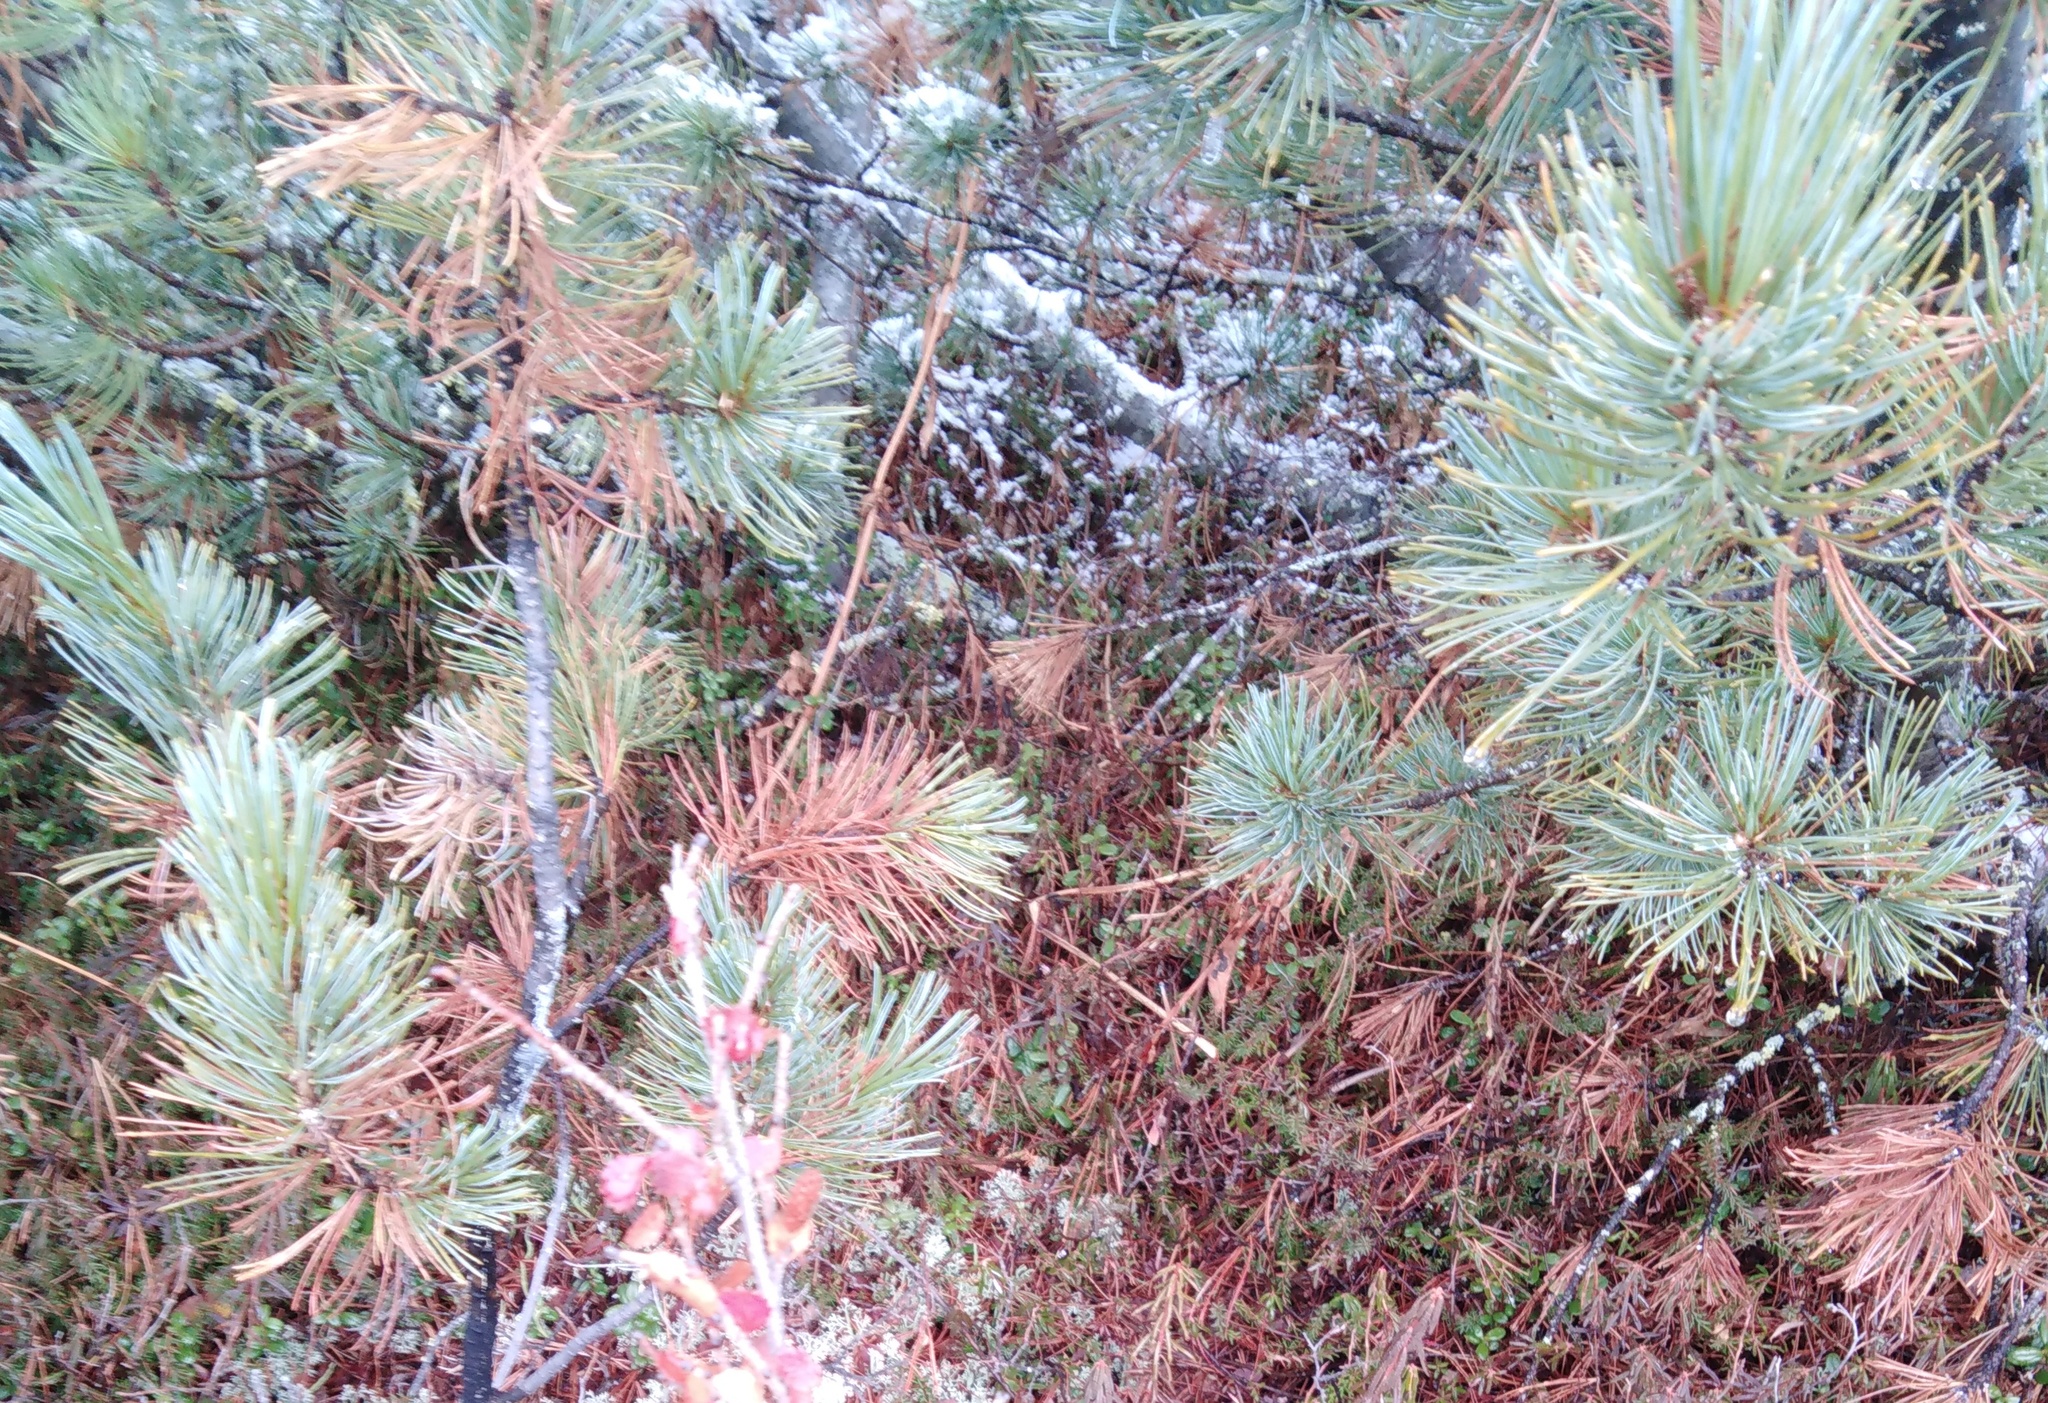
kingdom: Plantae
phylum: Tracheophyta
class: Pinopsida
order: Pinales
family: Pinaceae
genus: Pinus
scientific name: Pinus pumila
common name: Dwarf siberian pine
